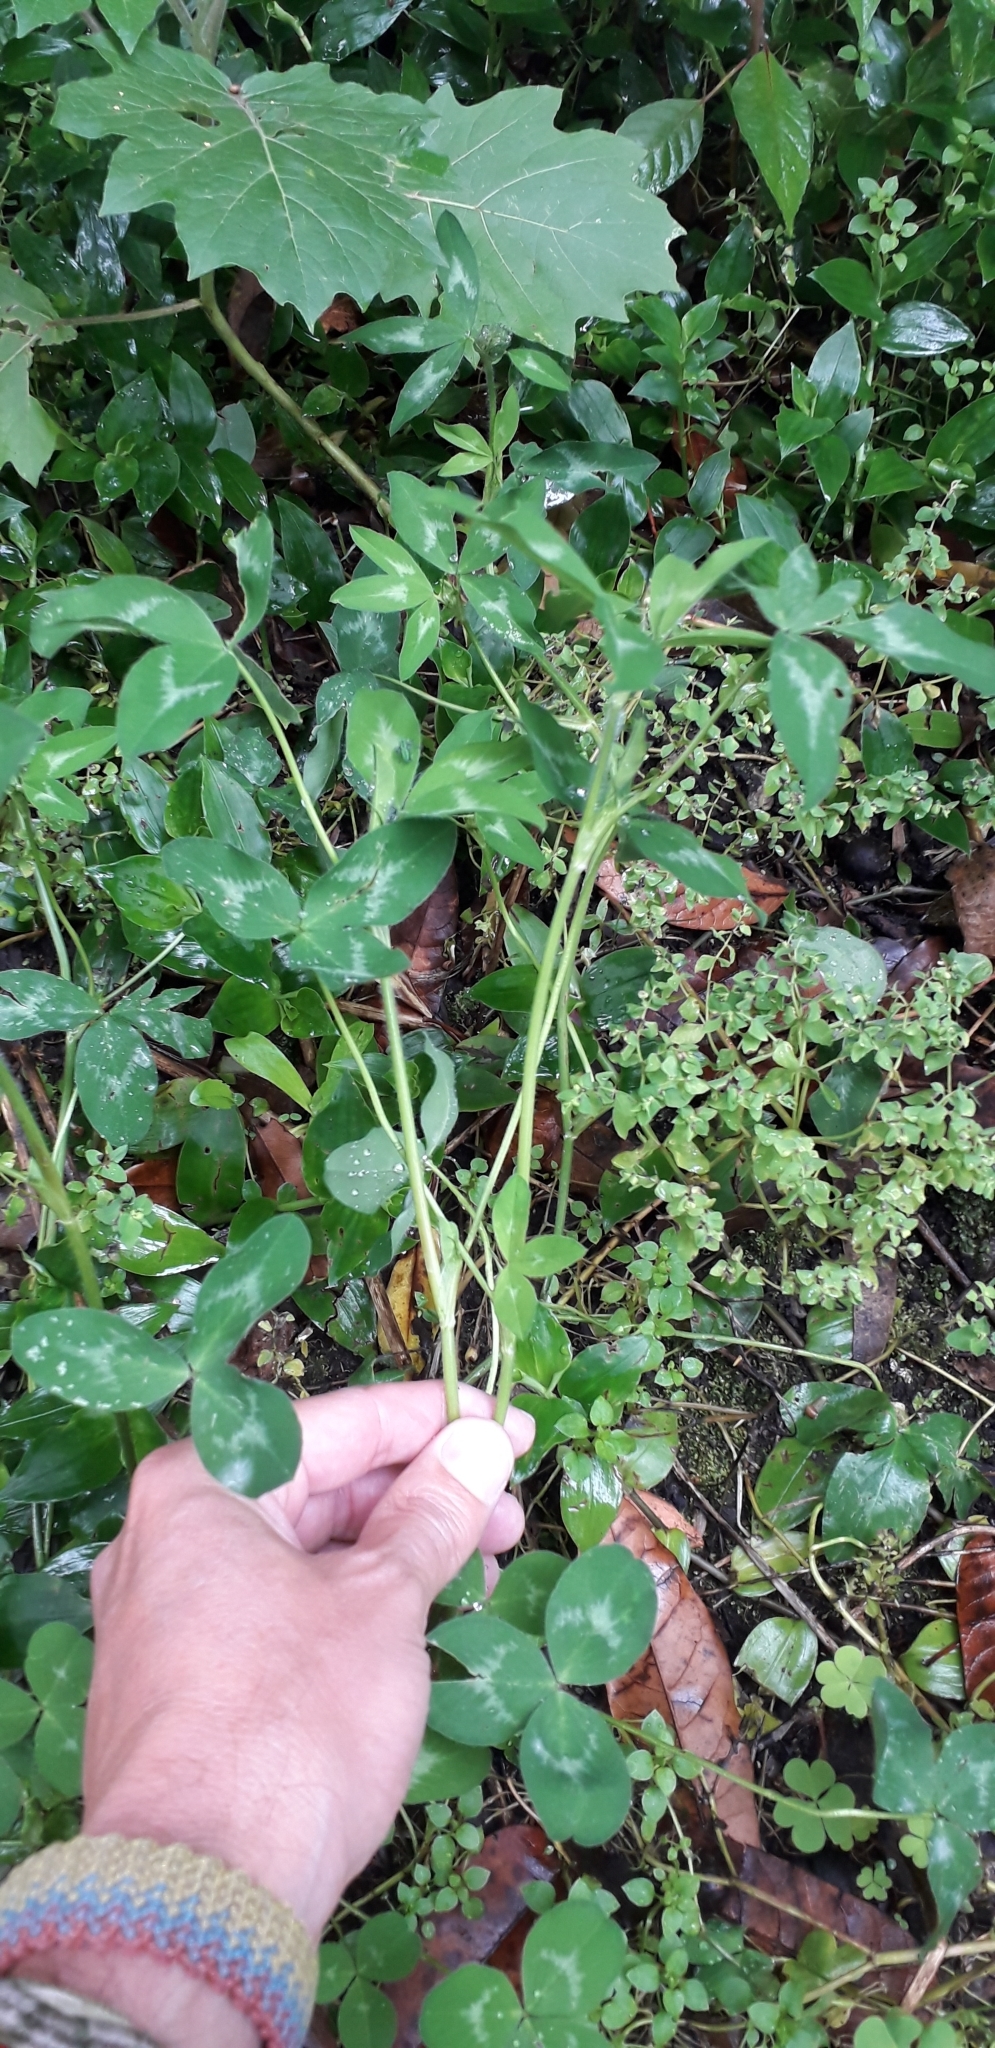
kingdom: Plantae
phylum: Tracheophyta
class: Magnoliopsida
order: Fabales
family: Fabaceae
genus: Trifolium
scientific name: Trifolium pratense
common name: Red clover
